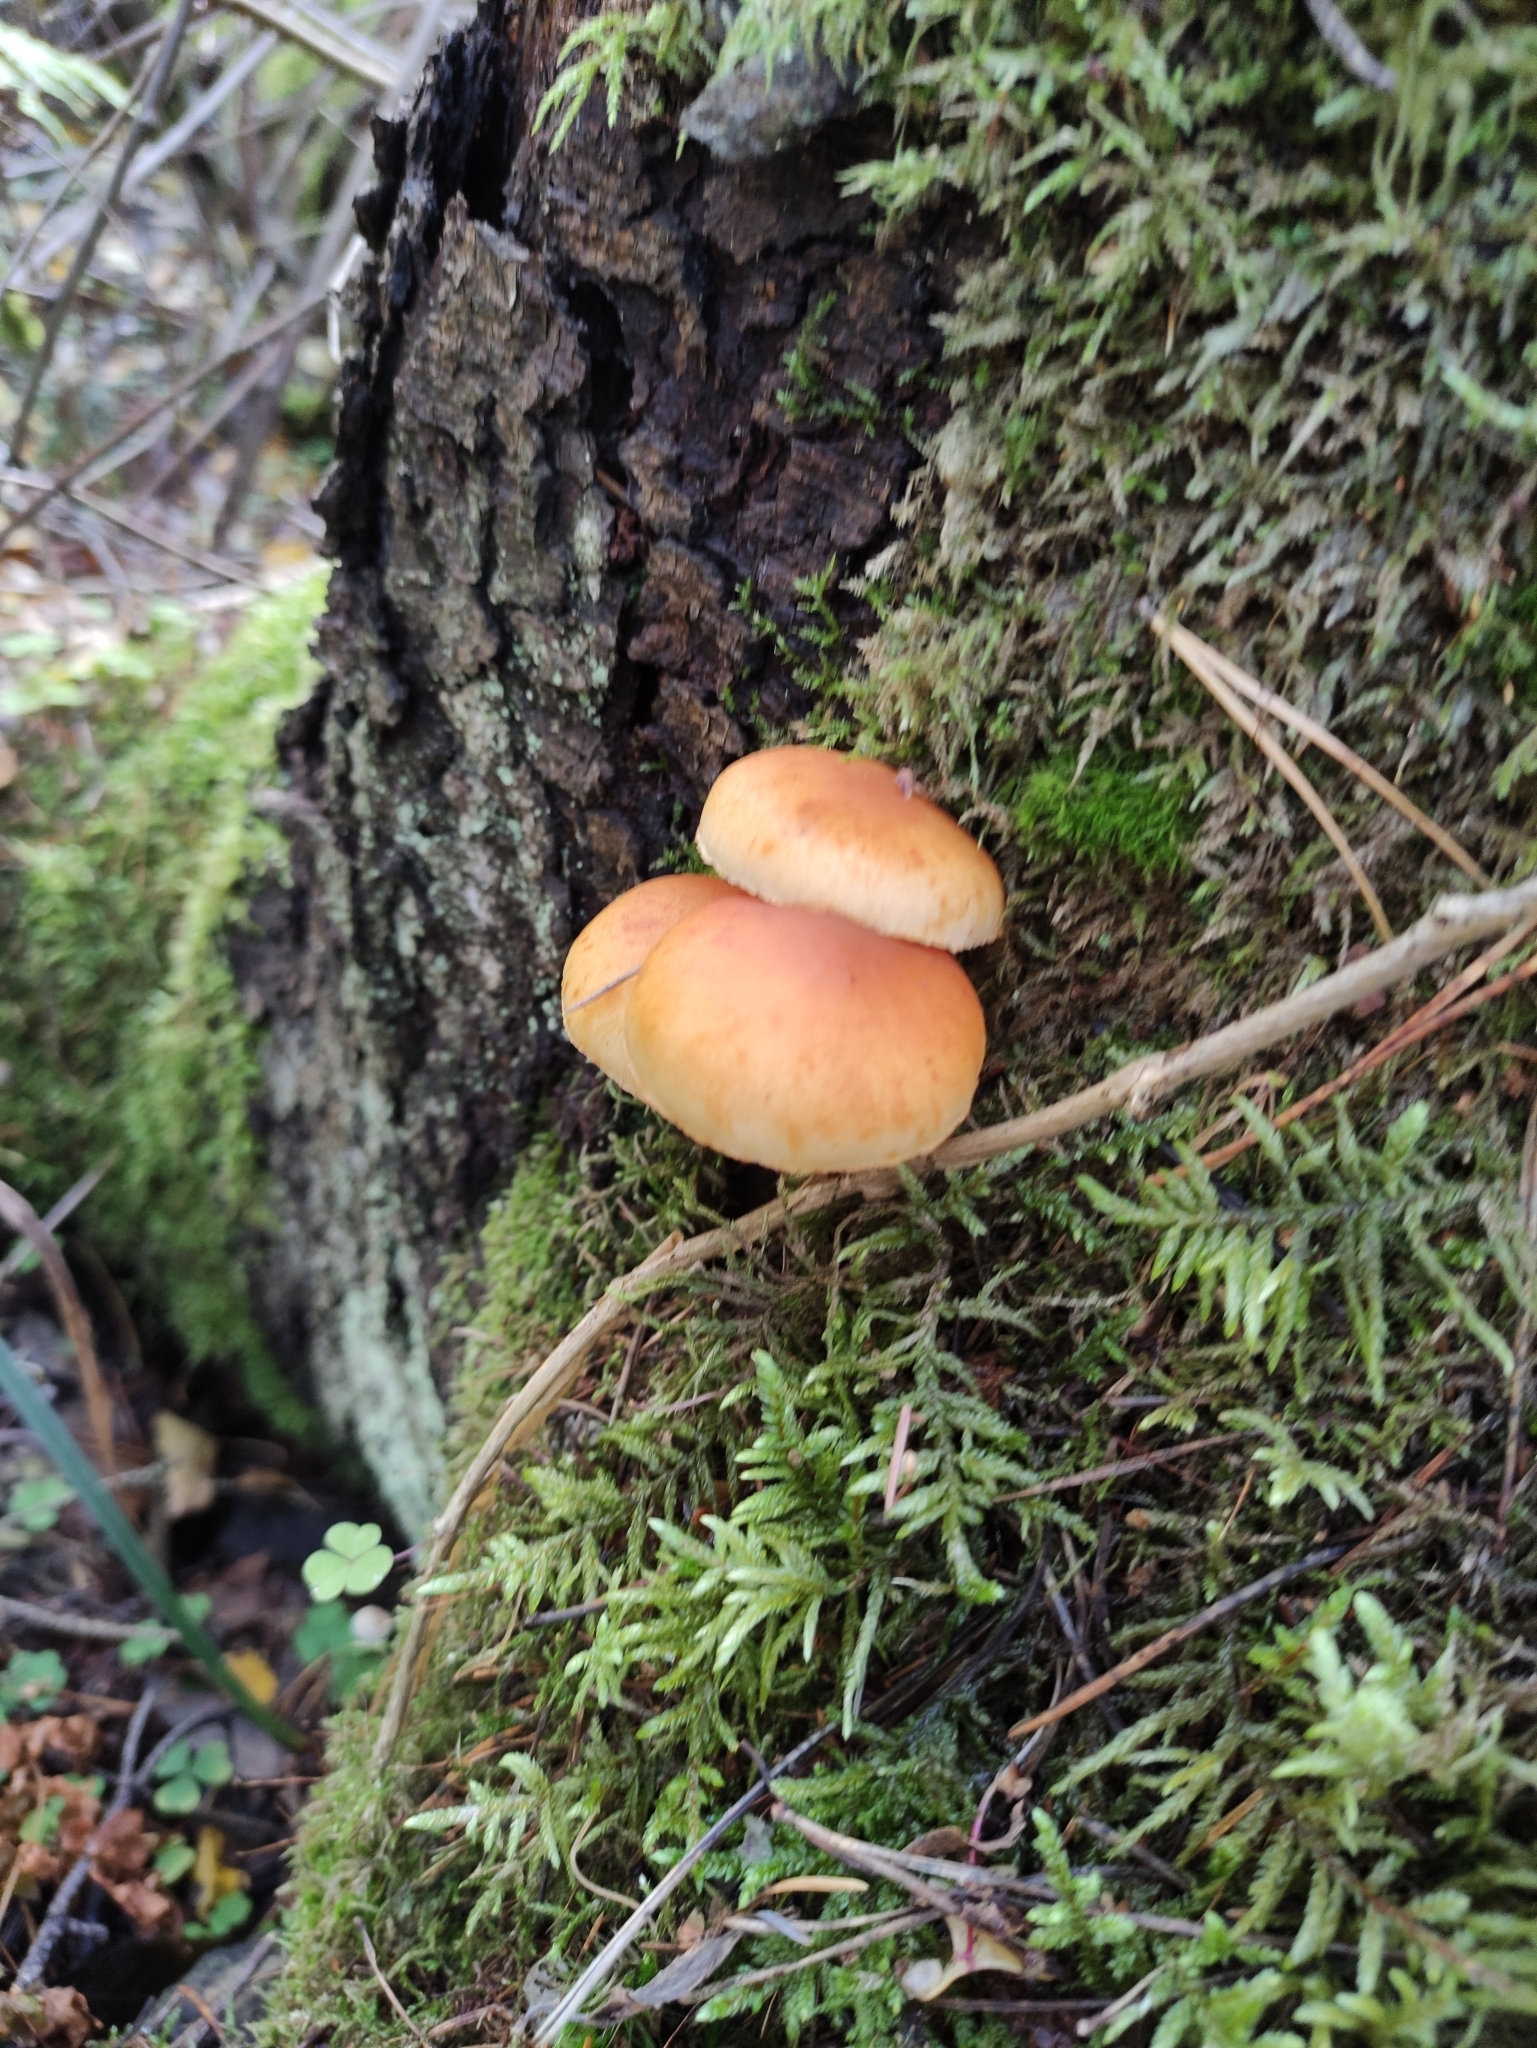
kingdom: Fungi
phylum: Basidiomycota
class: Agaricomycetes
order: Agaricales
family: Hymenogastraceae
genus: Gymnopilus
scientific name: Gymnopilus penetrans
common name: Common rustgill
